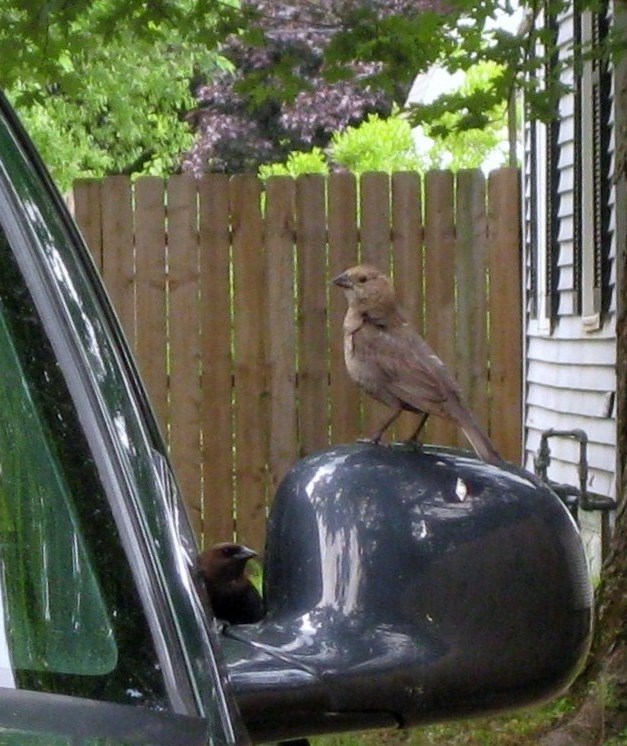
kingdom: Animalia
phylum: Chordata
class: Aves
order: Passeriformes
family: Icteridae
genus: Molothrus
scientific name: Molothrus ater
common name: Brown-headed cowbird
